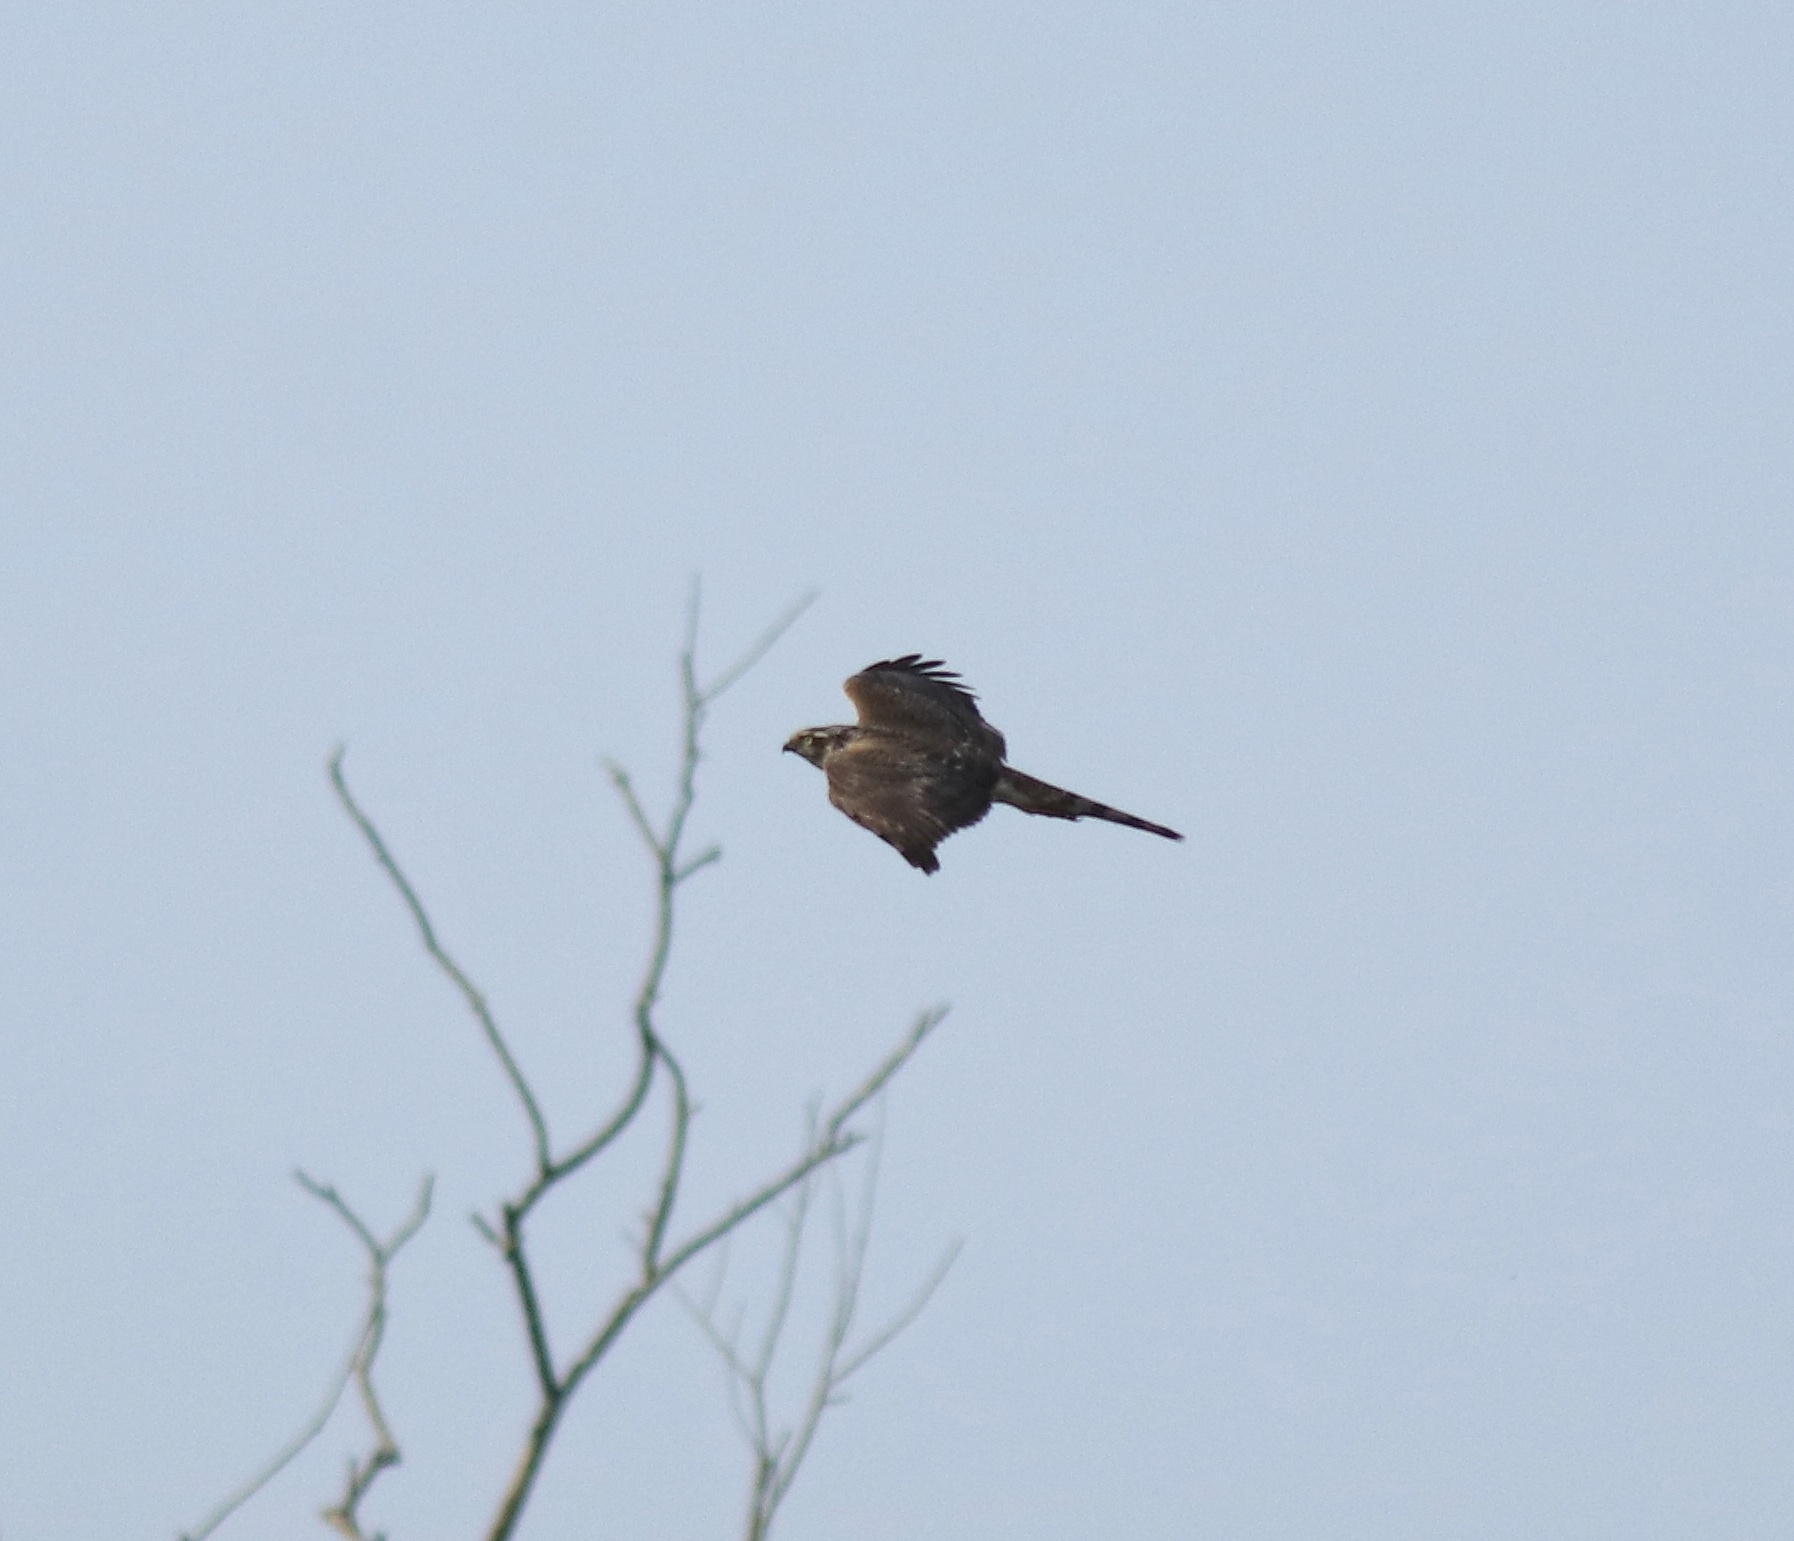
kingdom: Animalia
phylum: Chordata
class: Aves
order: Accipitriformes
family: Accipitridae
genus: Accipiter
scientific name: Accipiter nisus
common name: Eurasian sparrowhawk
